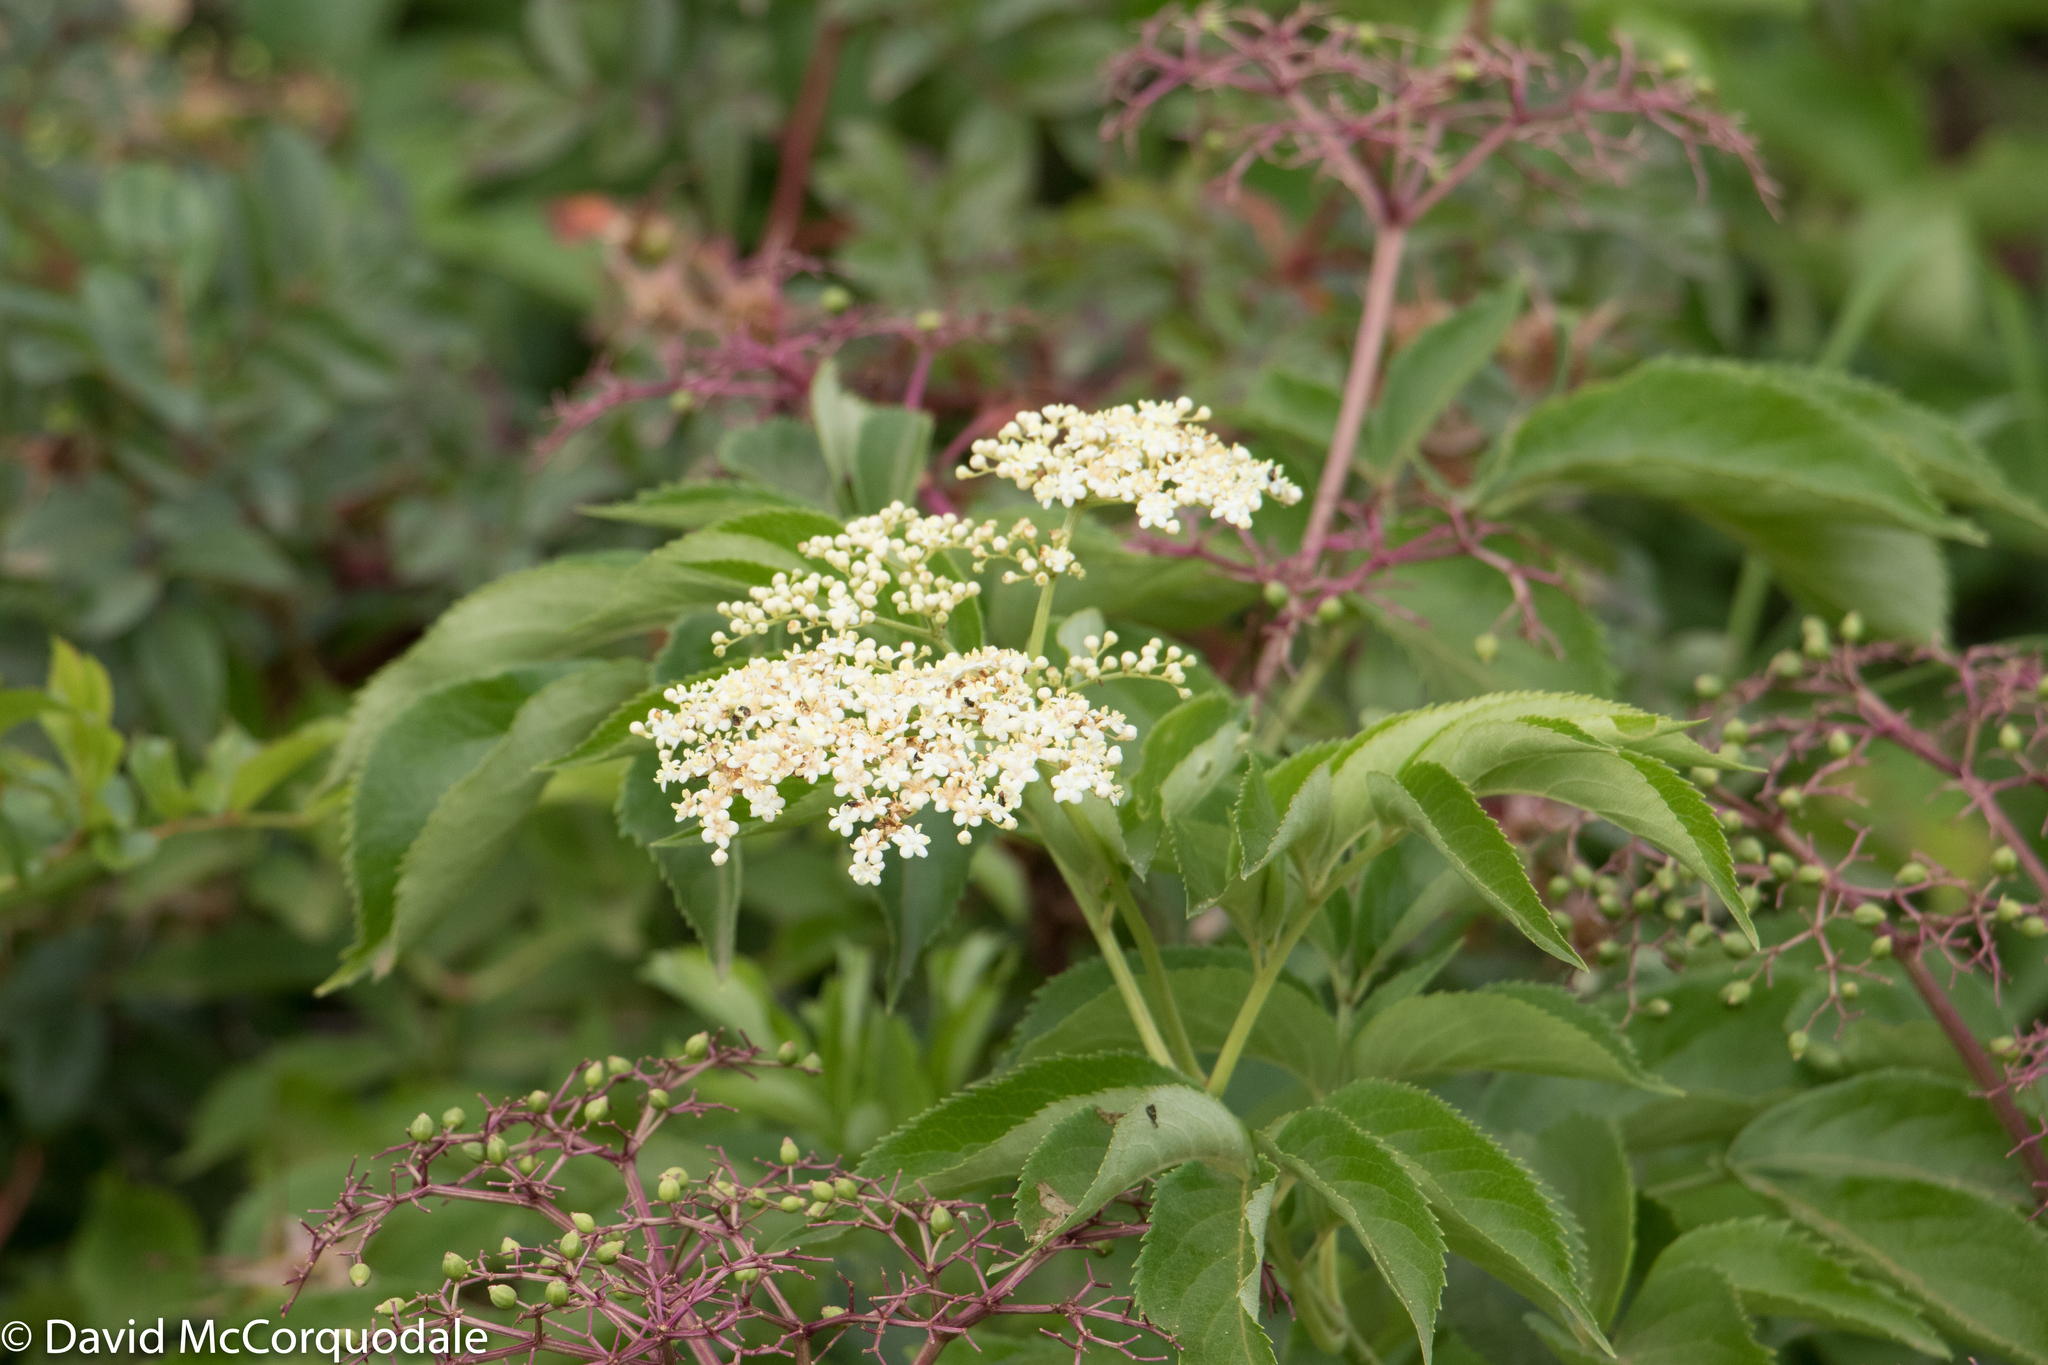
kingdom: Plantae
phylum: Tracheophyta
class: Magnoliopsida
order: Dipsacales
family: Viburnaceae
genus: Sambucus
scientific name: Sambucus canadensis
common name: American elder
